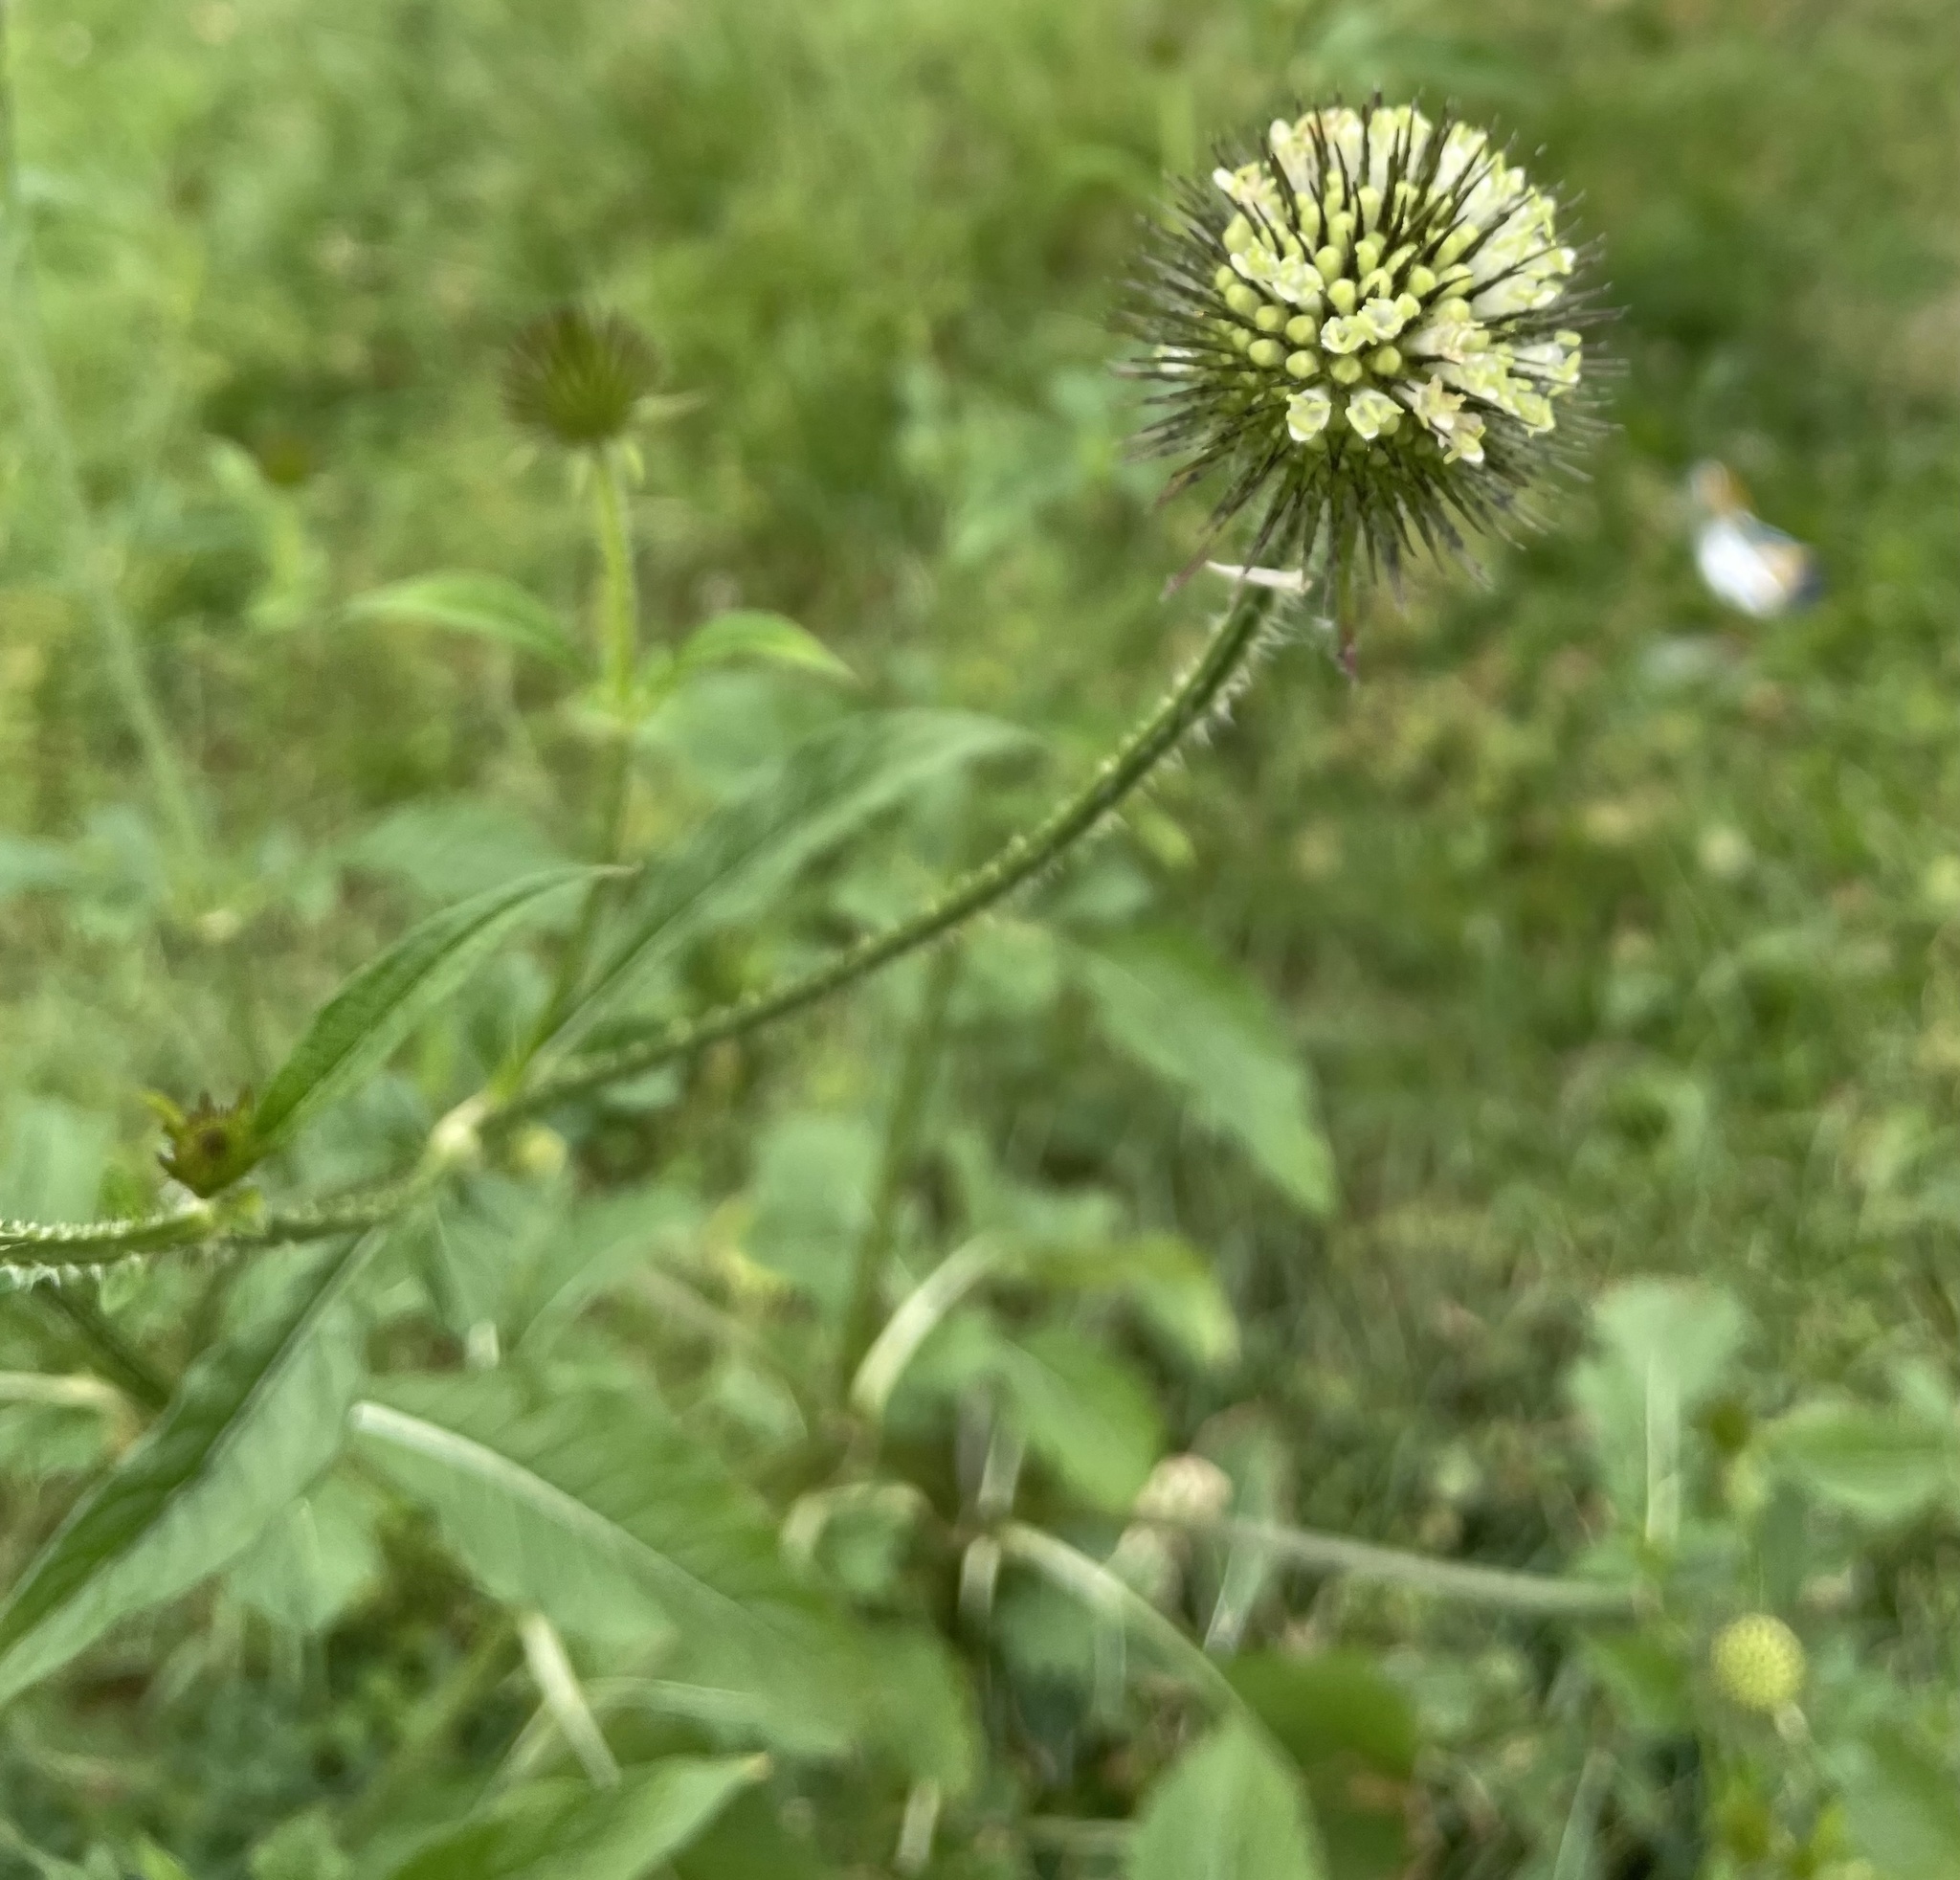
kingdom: Plantae
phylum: Tracheophyta
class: Magnoliopsida
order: Dipsacales
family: Caprifoliaceae
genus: Dipsacus
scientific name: Dipsacus strigosus
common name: Yellow-flowered teasel
